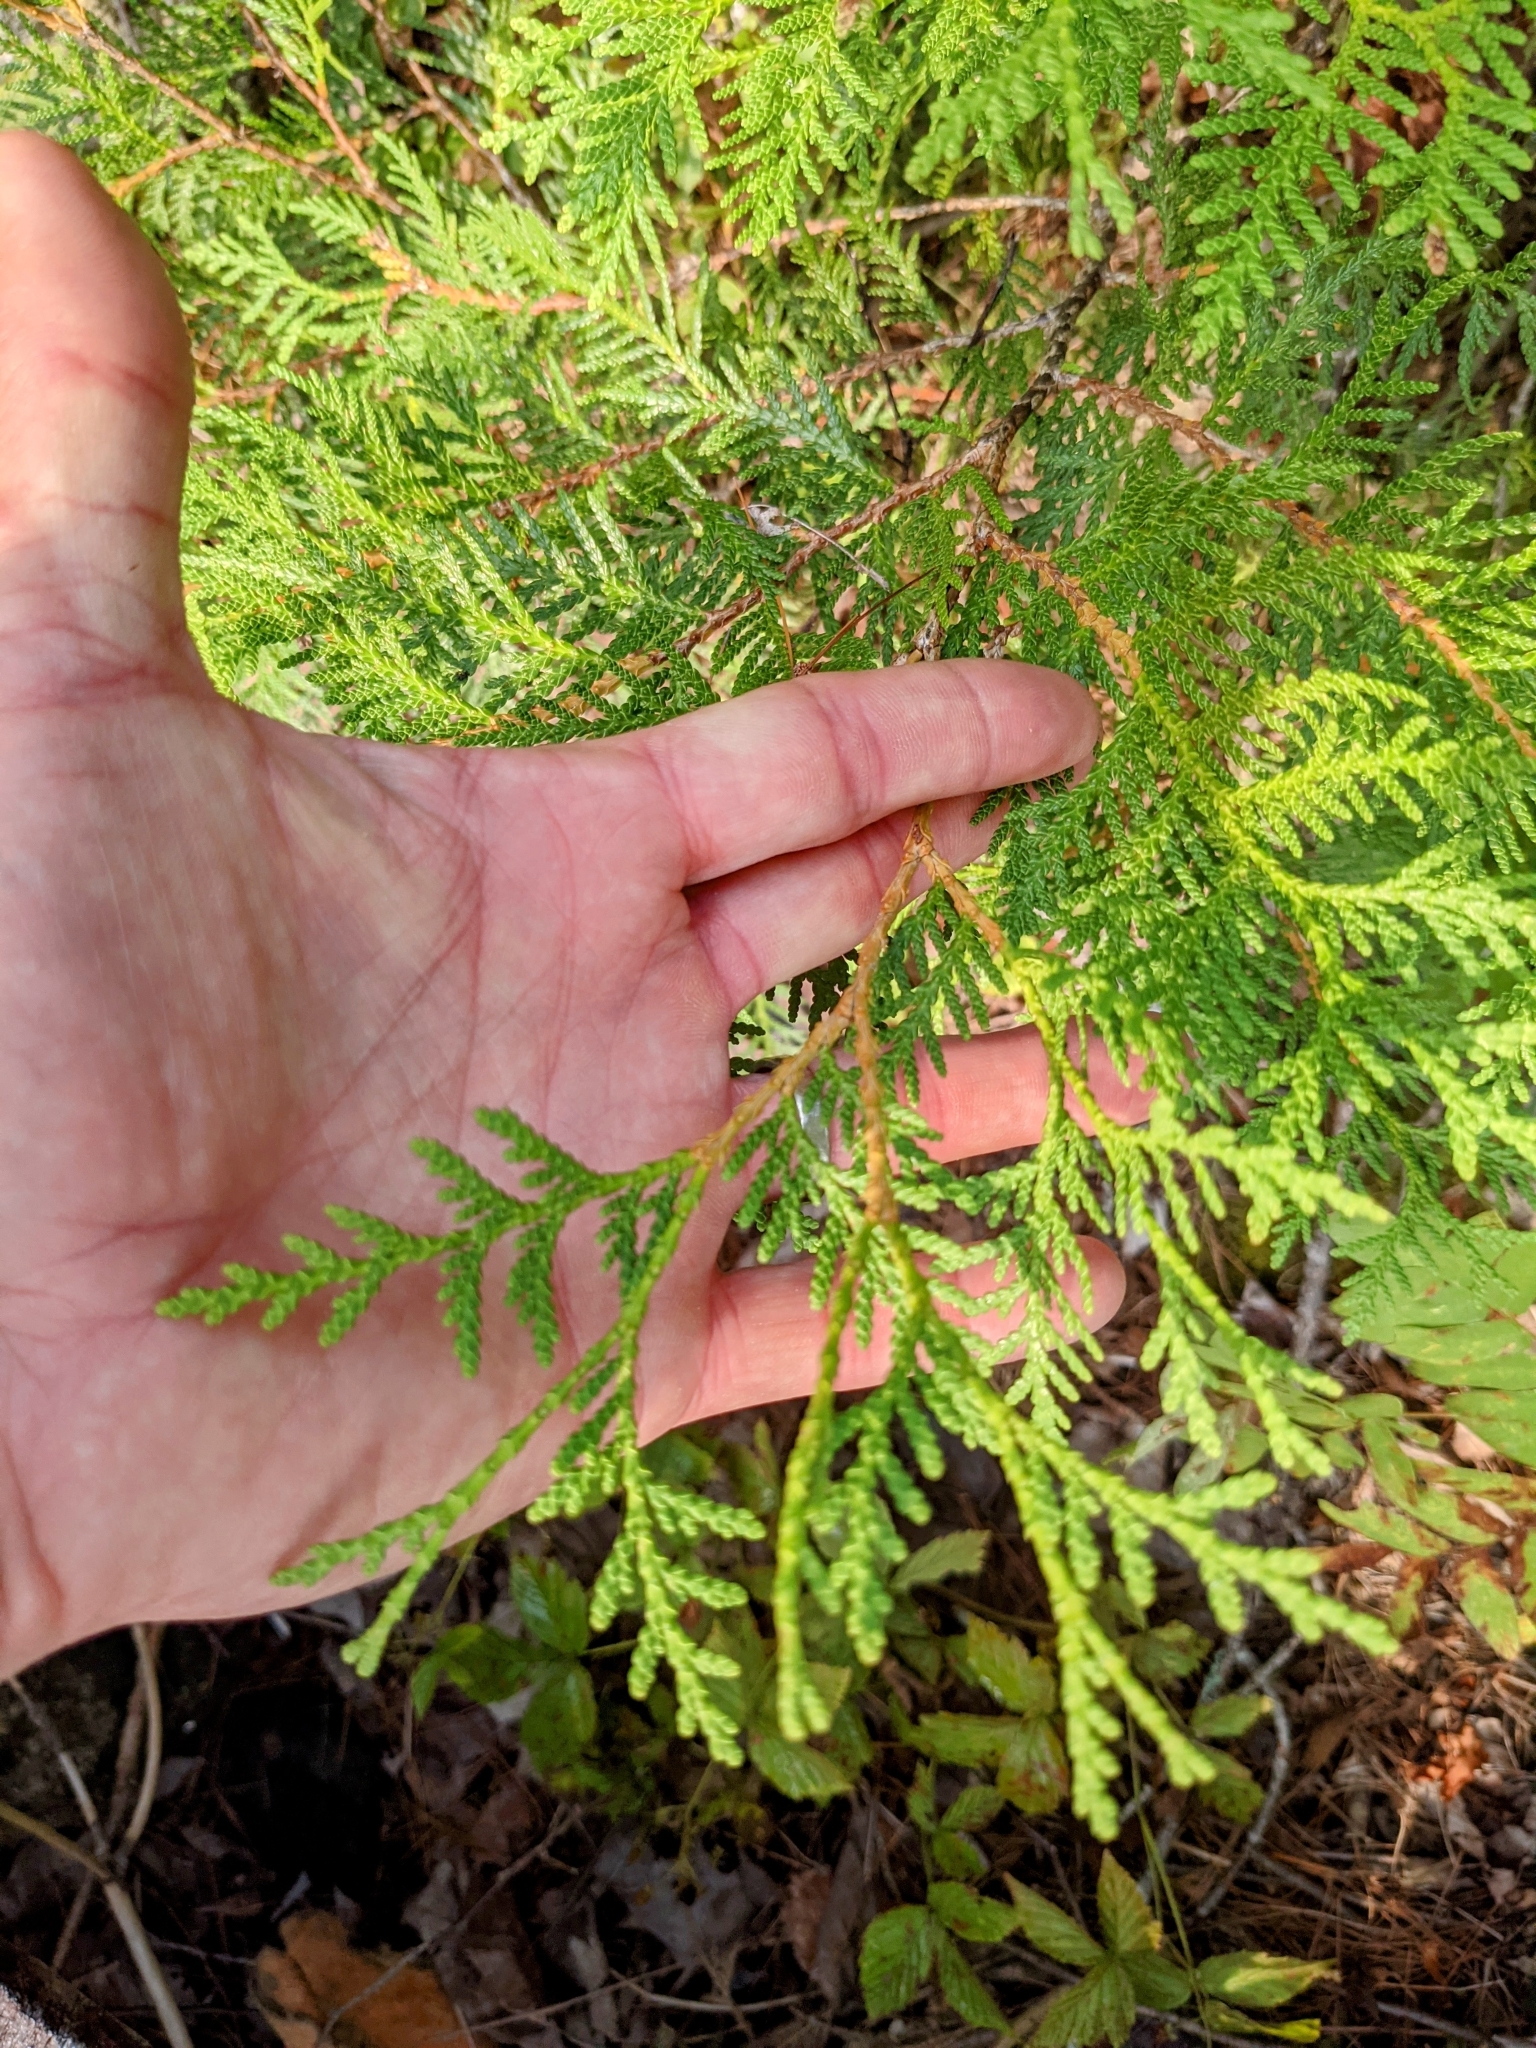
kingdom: Plantae
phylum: Tracheophyta
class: Pinopsida
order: Pinales
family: Cupressaceae
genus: Thuja
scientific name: Thuja occidentalis
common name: Northern white-cedar
